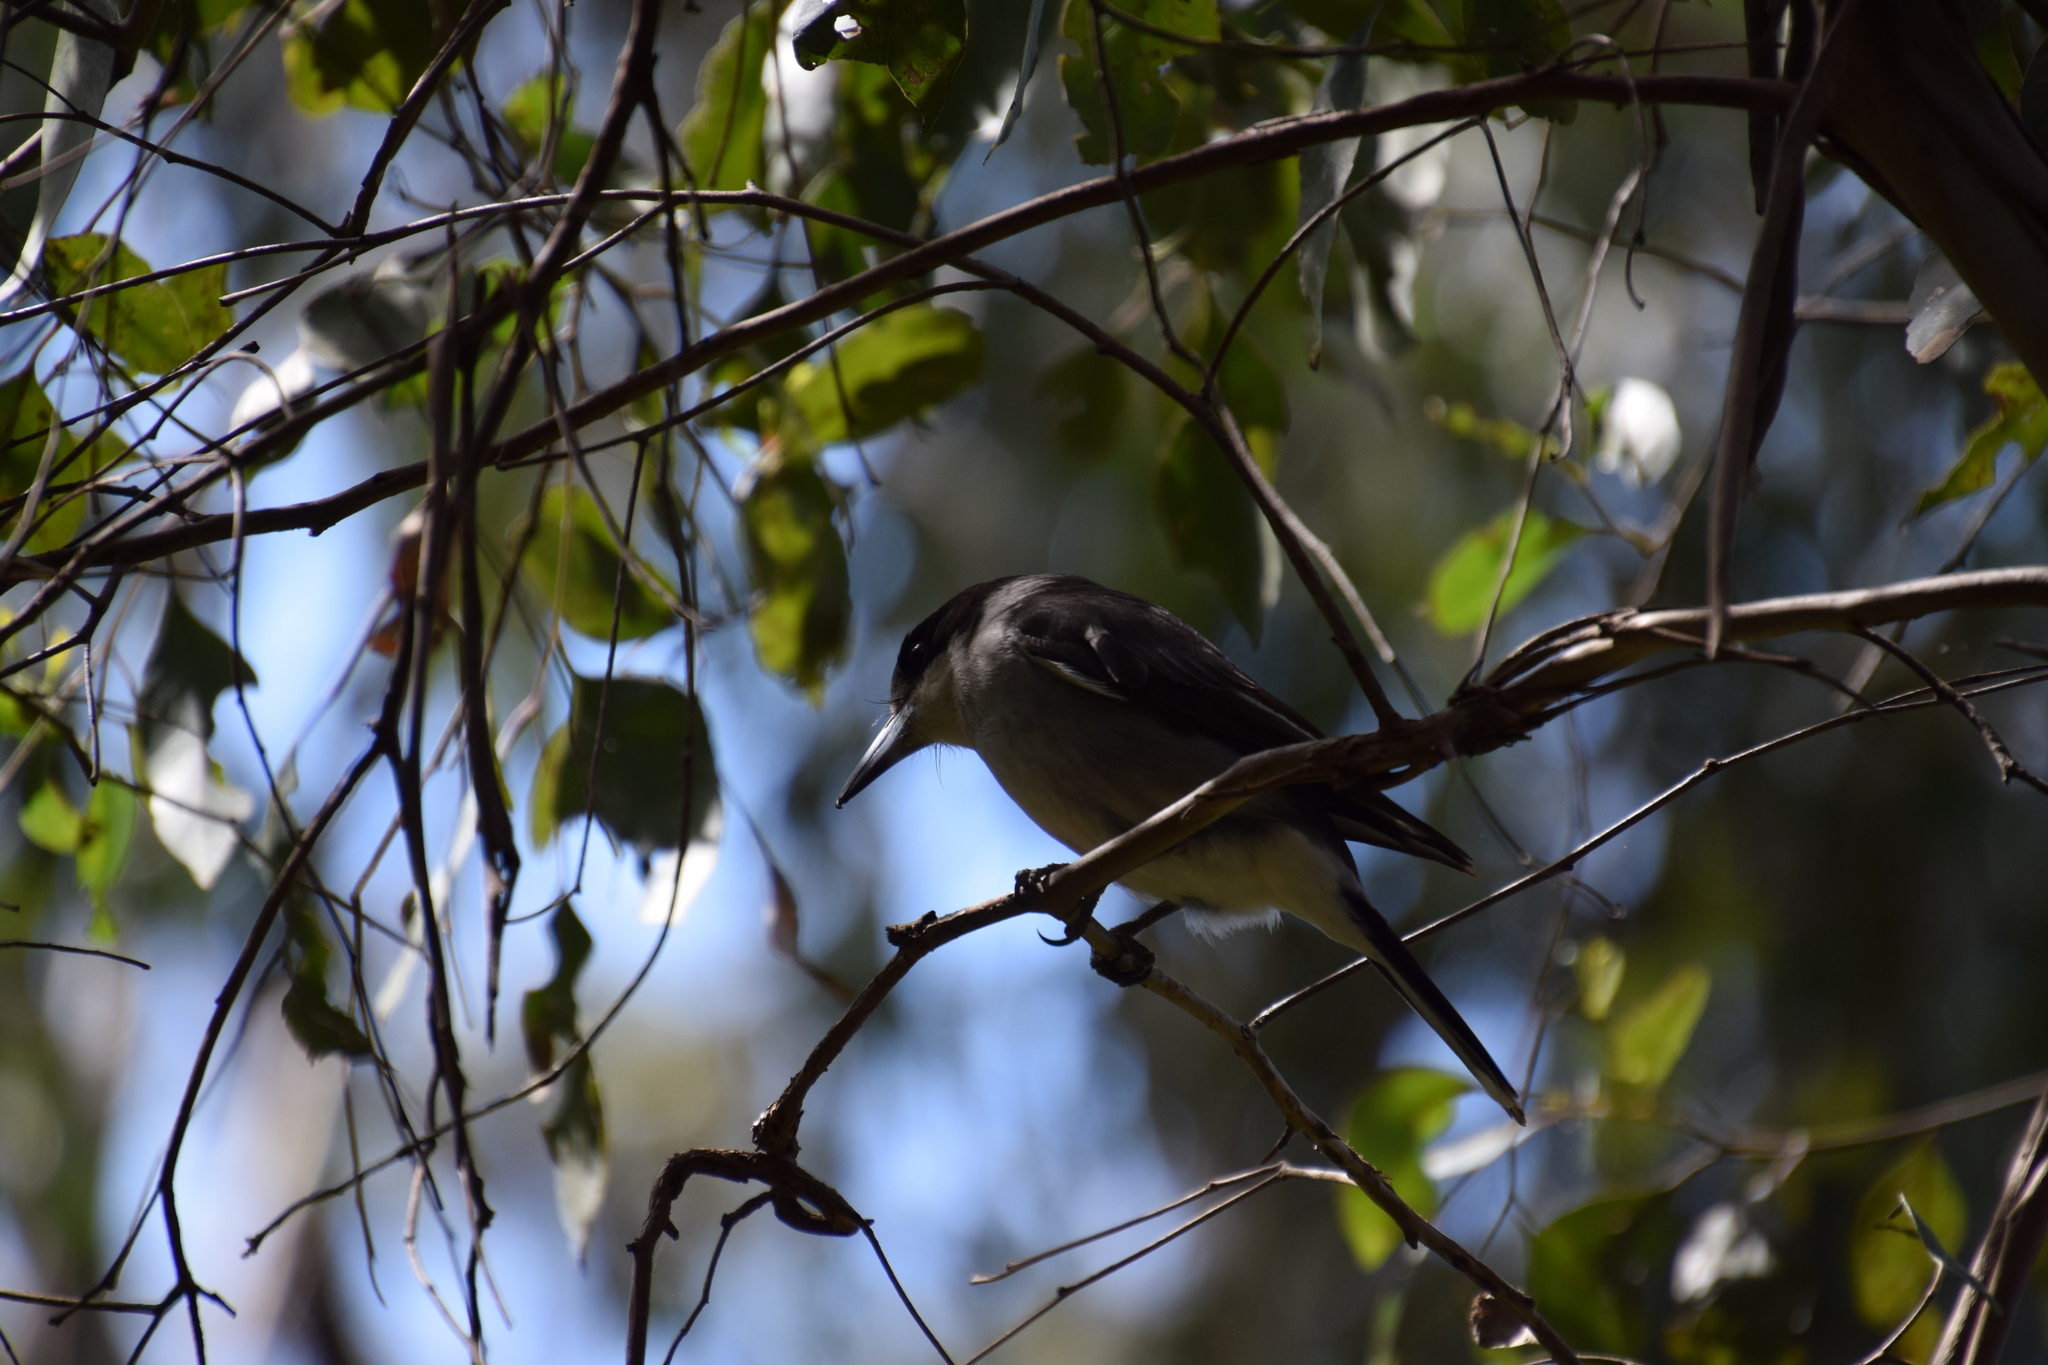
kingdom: Animalia
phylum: Chordata
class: Aves
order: Passeriformes
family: Cracticidae
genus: Cracticus
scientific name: Cracticus torquatus
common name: Grey butcherbird
